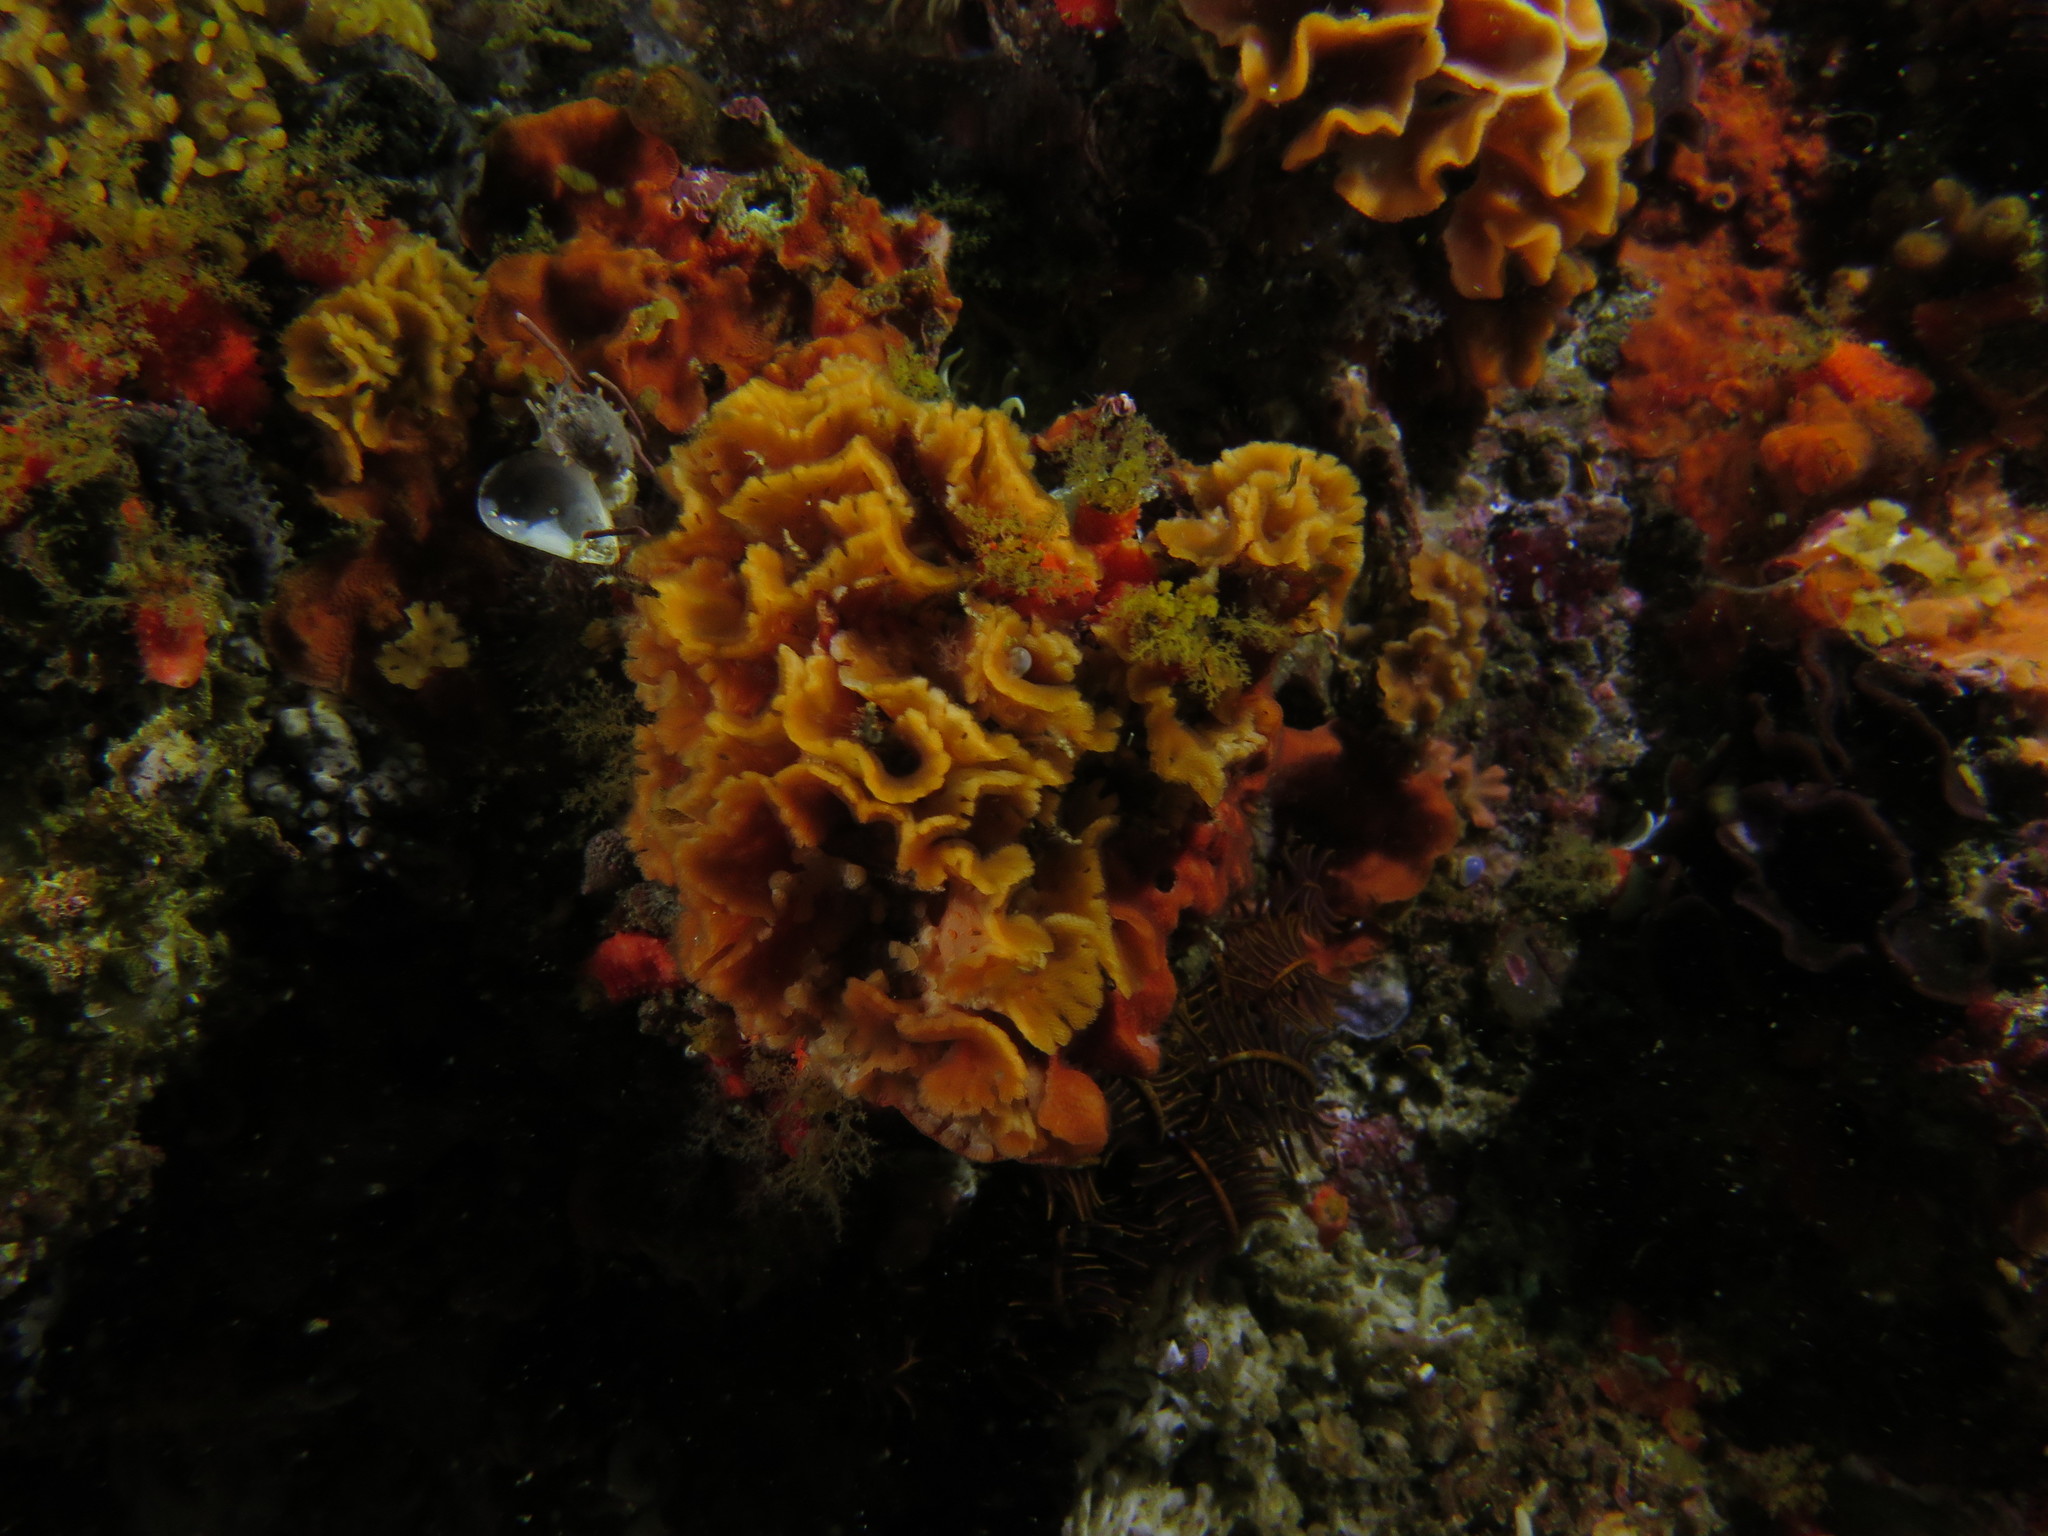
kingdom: Animalia
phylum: Bryozoa
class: Gymnolaemata
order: Cheilostomatida
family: Phidoloporidae
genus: Schizoretepora
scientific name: Schizoretepora tessellata
